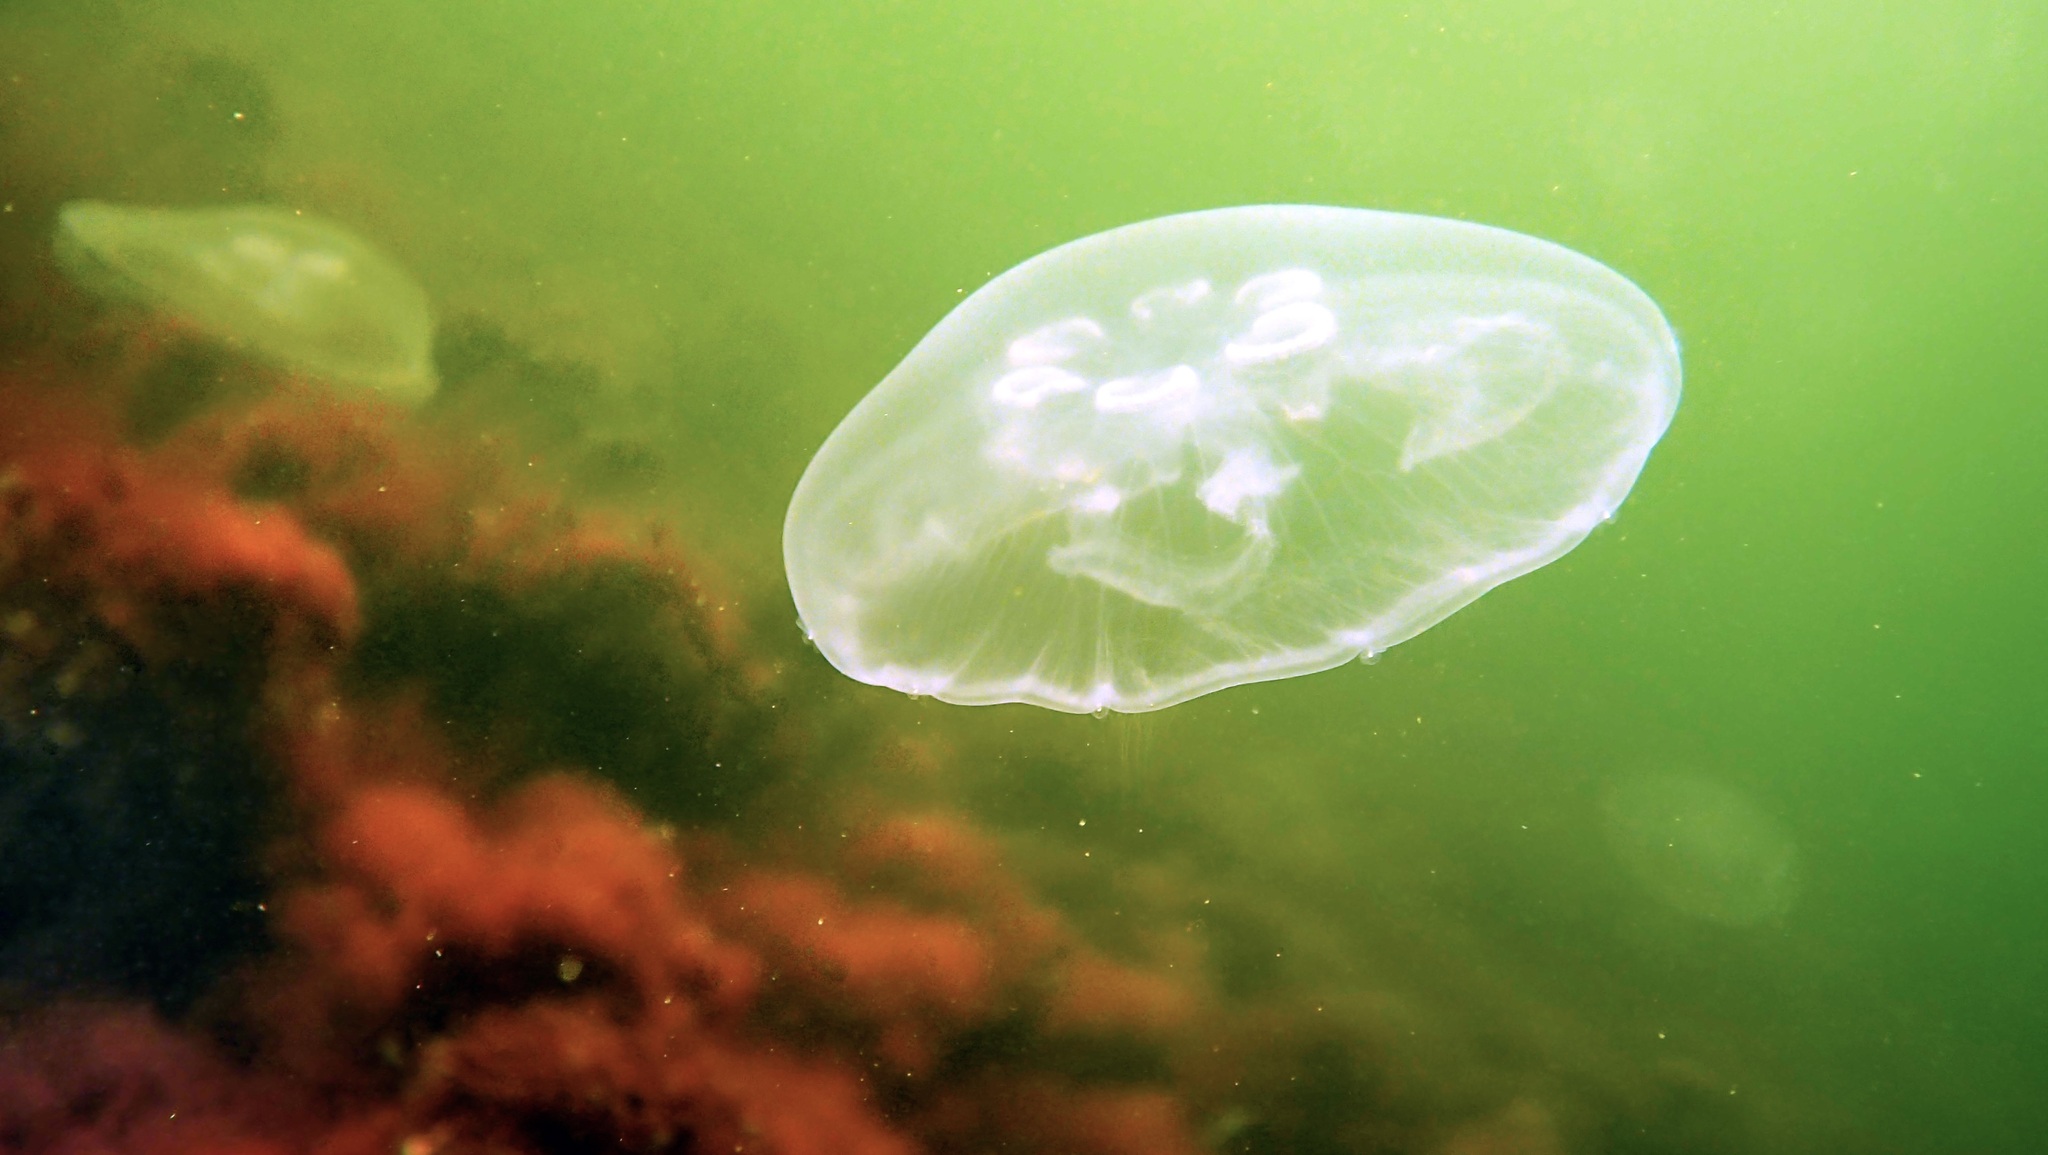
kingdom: Animalia
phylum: Cnidaria
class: Scyphozoa
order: Semaeostomeae
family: Ulmaridae
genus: Aurelia
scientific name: Aurelia aurita
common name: Moon jellyfish
